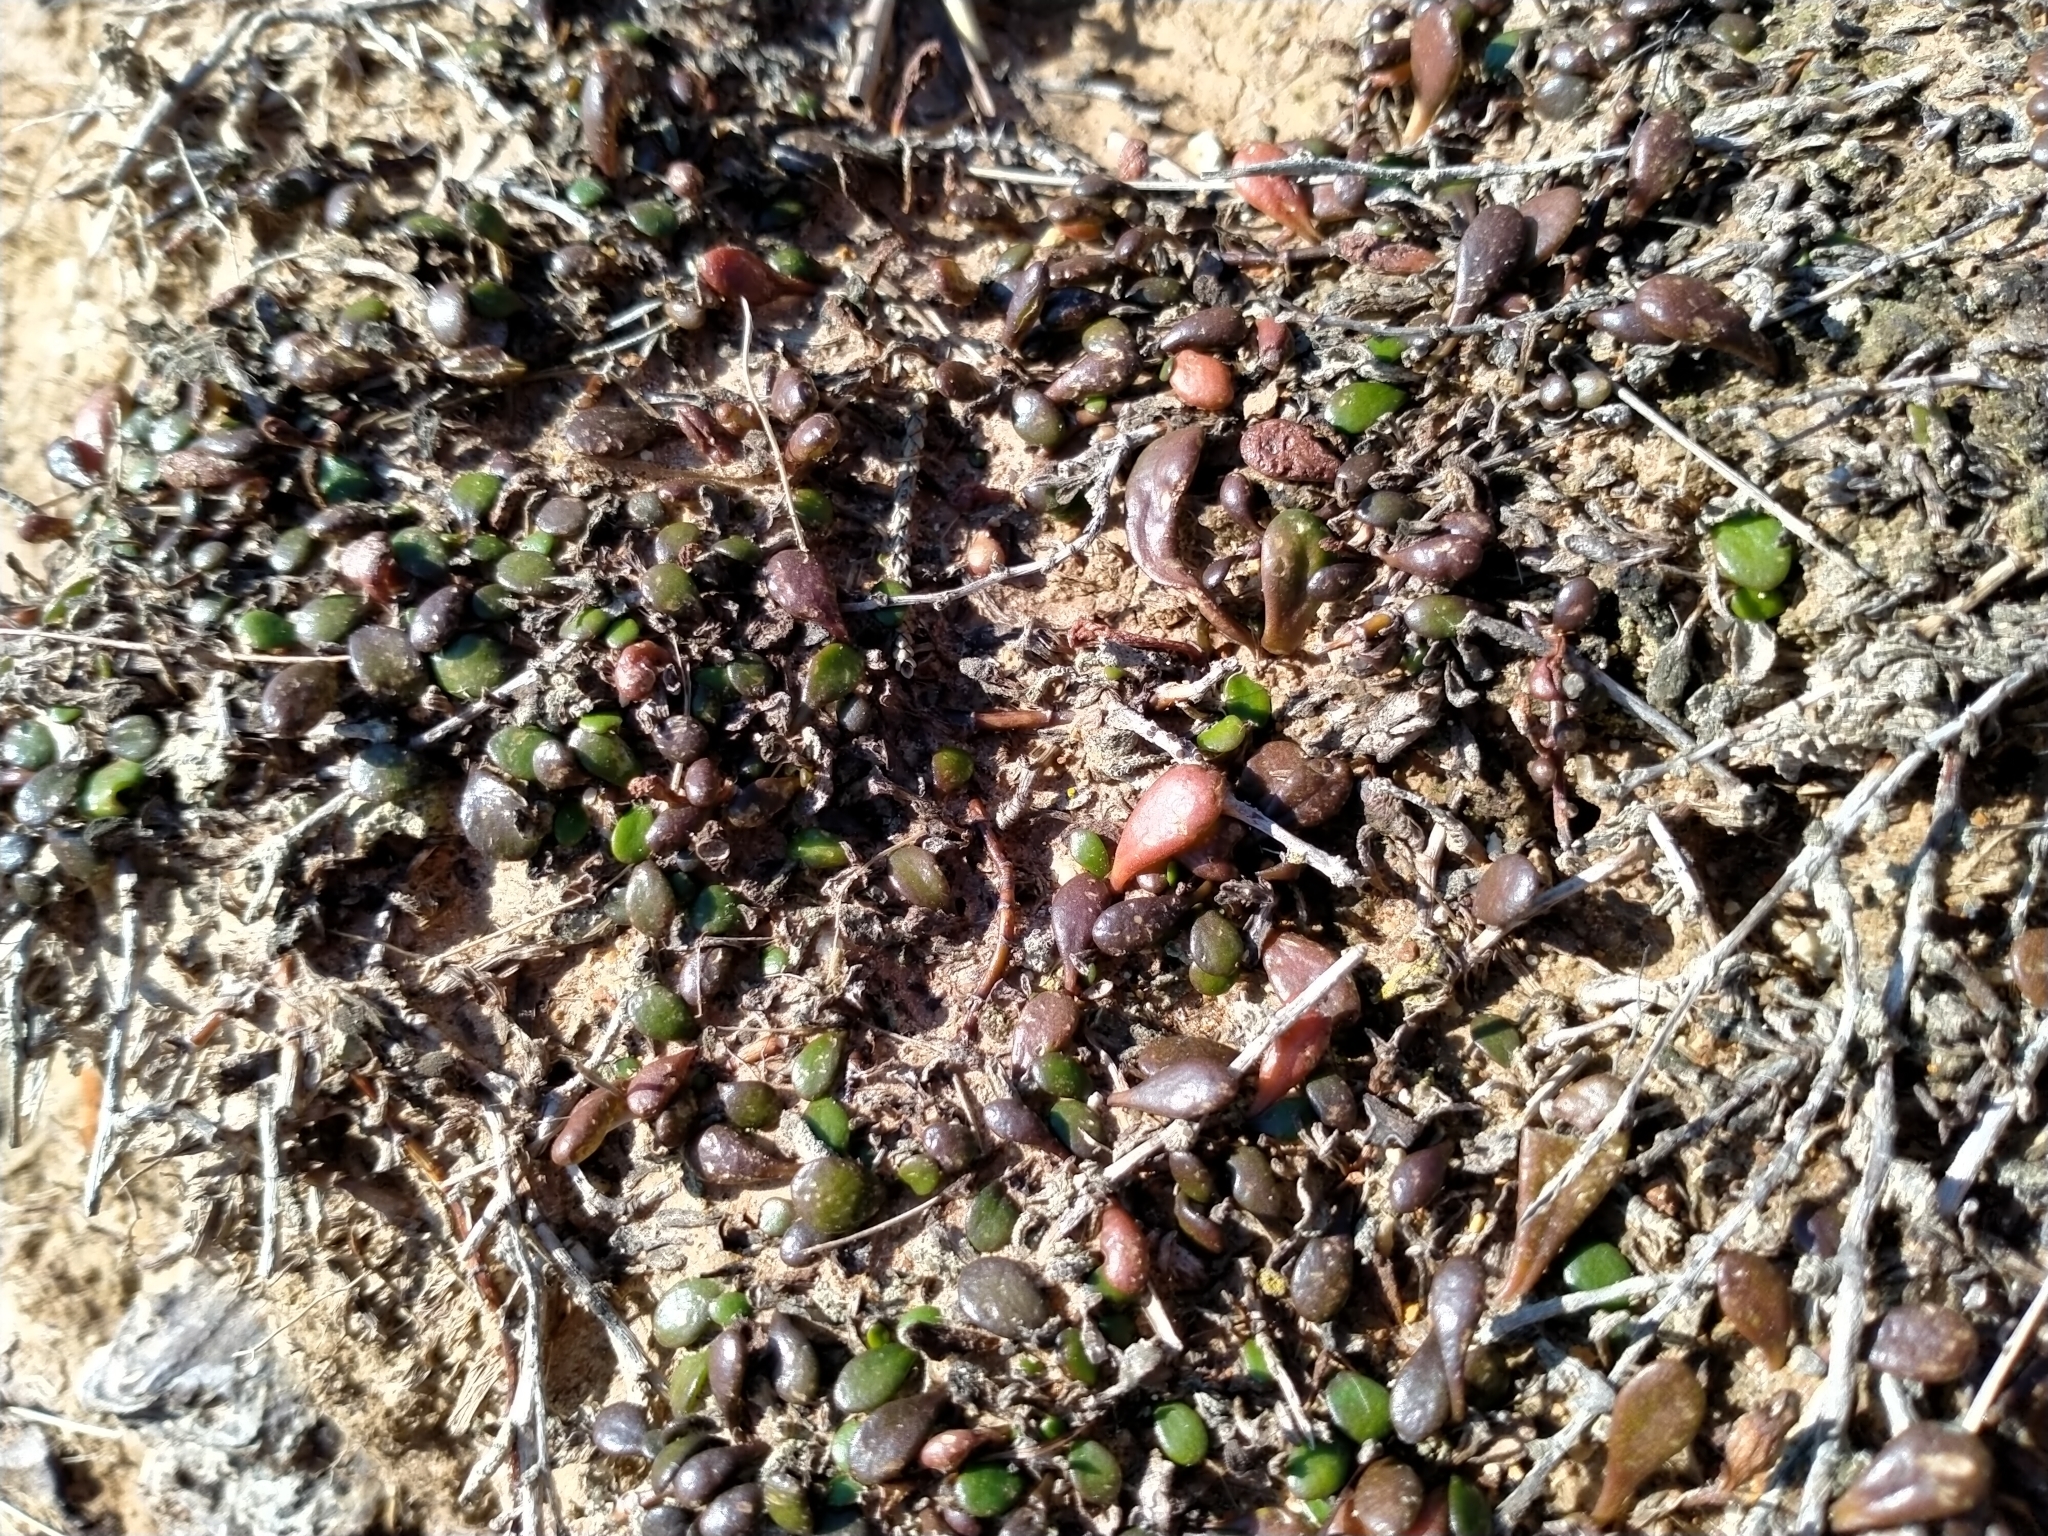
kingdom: Plantae
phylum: Tracheophyta
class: Magnoliopsida
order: Asterales
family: Goodeniaceae
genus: Goodenia
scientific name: Goodenia radicans
